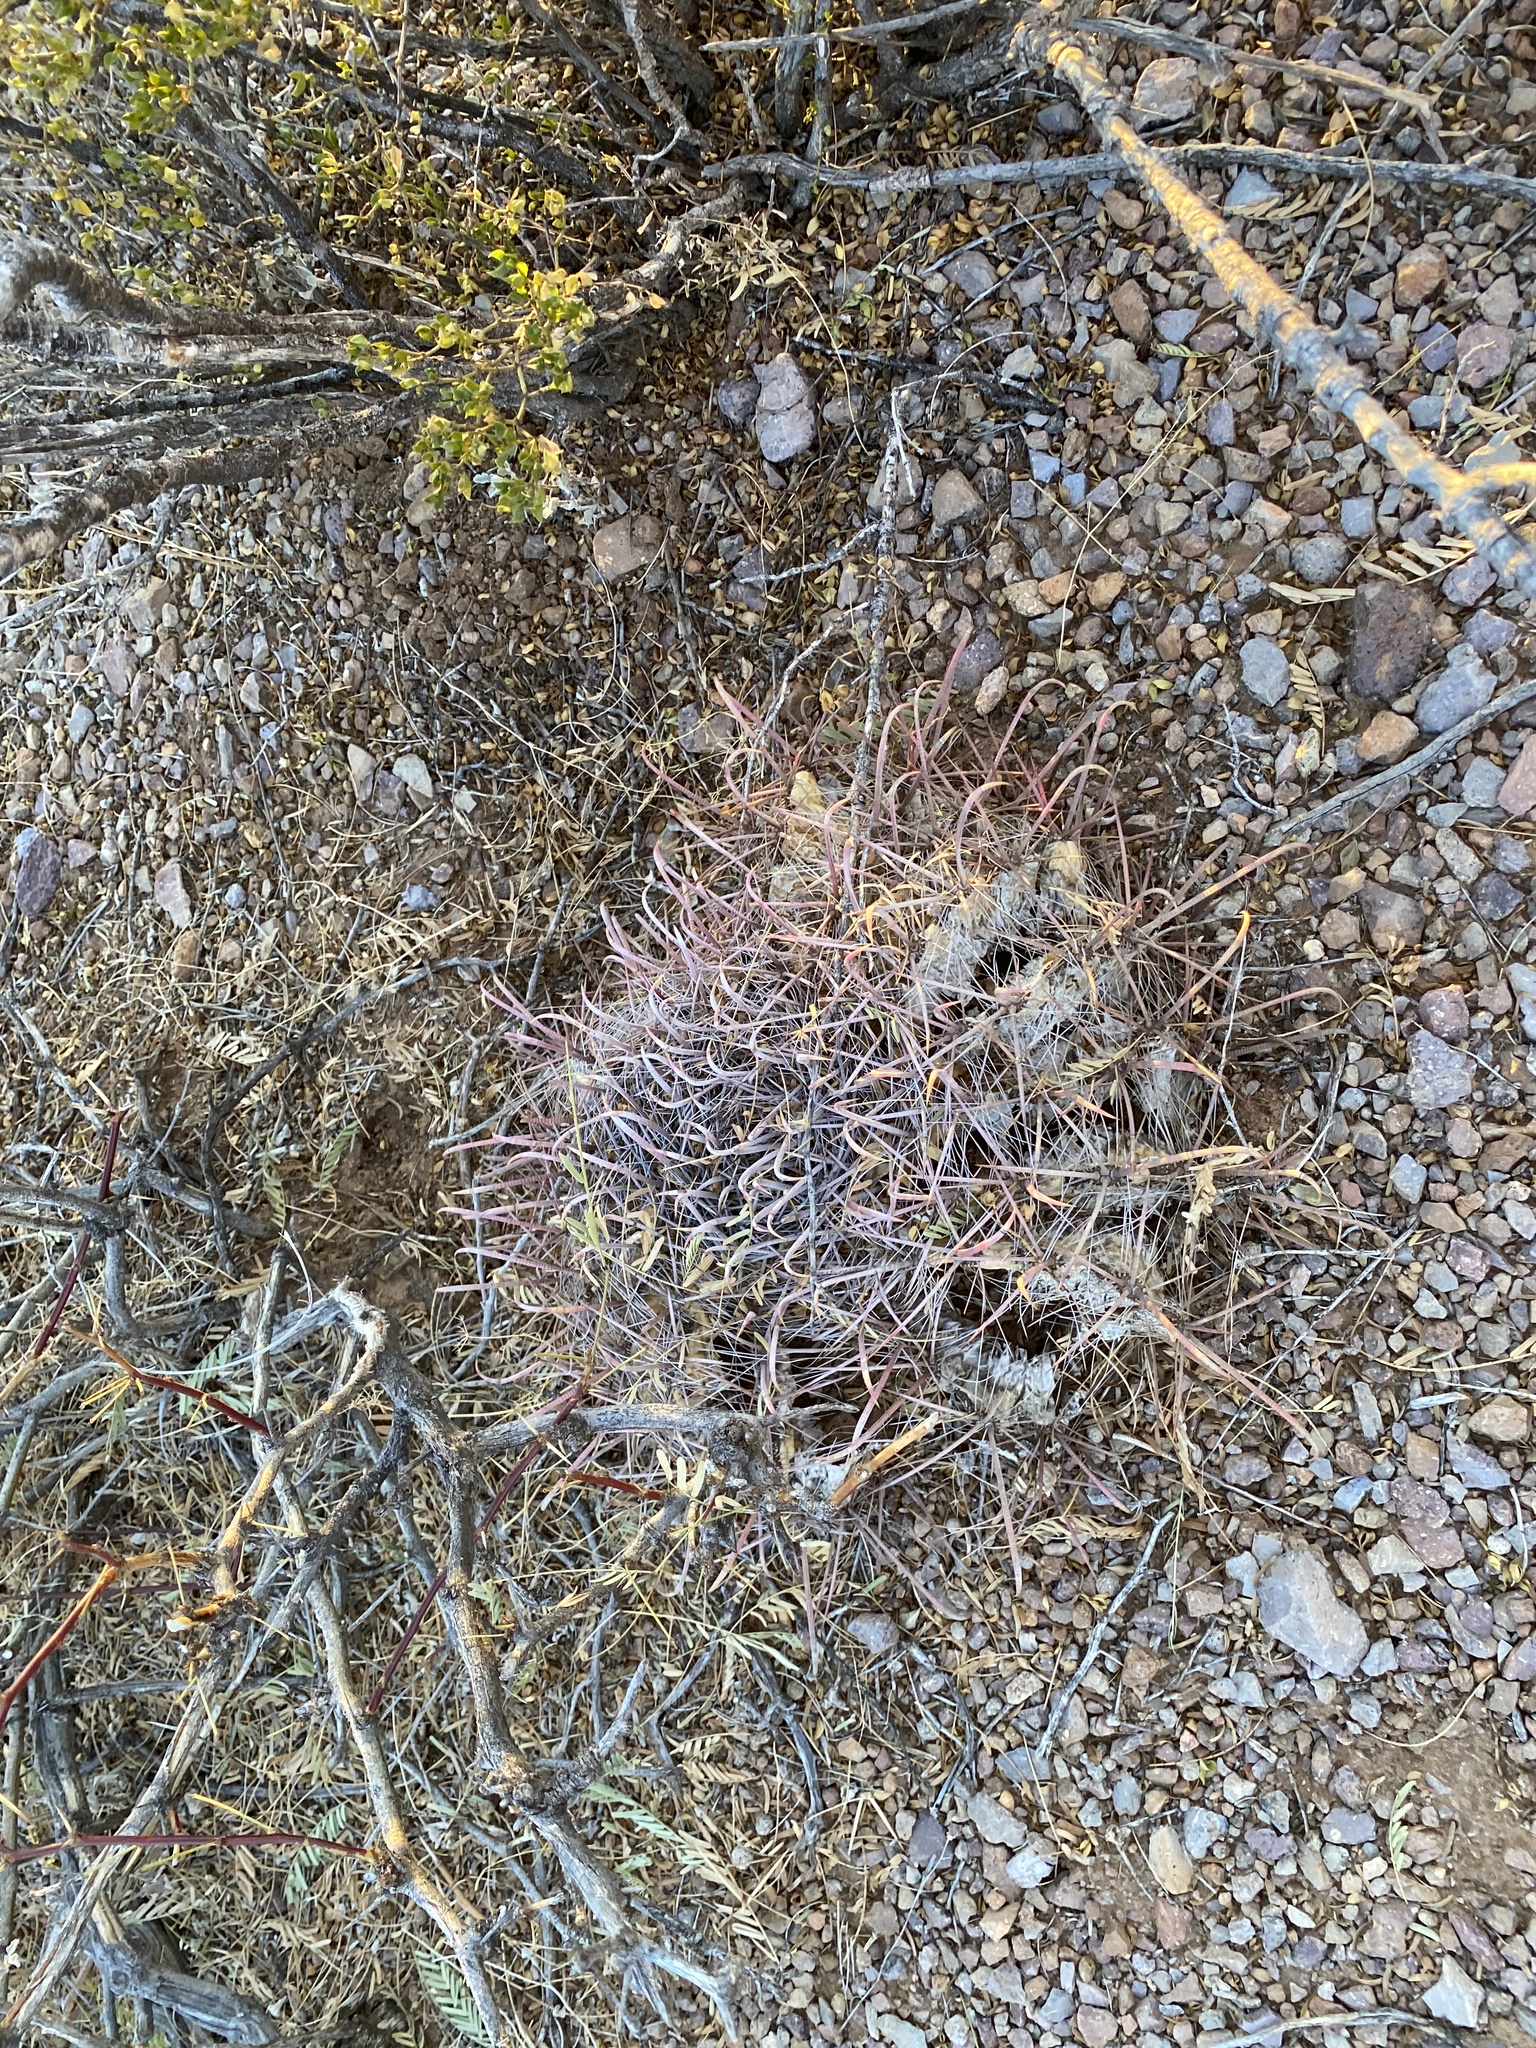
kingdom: Plantae
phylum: Tracheophyta
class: Magnoliopsida
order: Caryophyllales
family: Cactaceae
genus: Ferocactus
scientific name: Ferocactus wislizeni
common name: Candy barrel cactus
